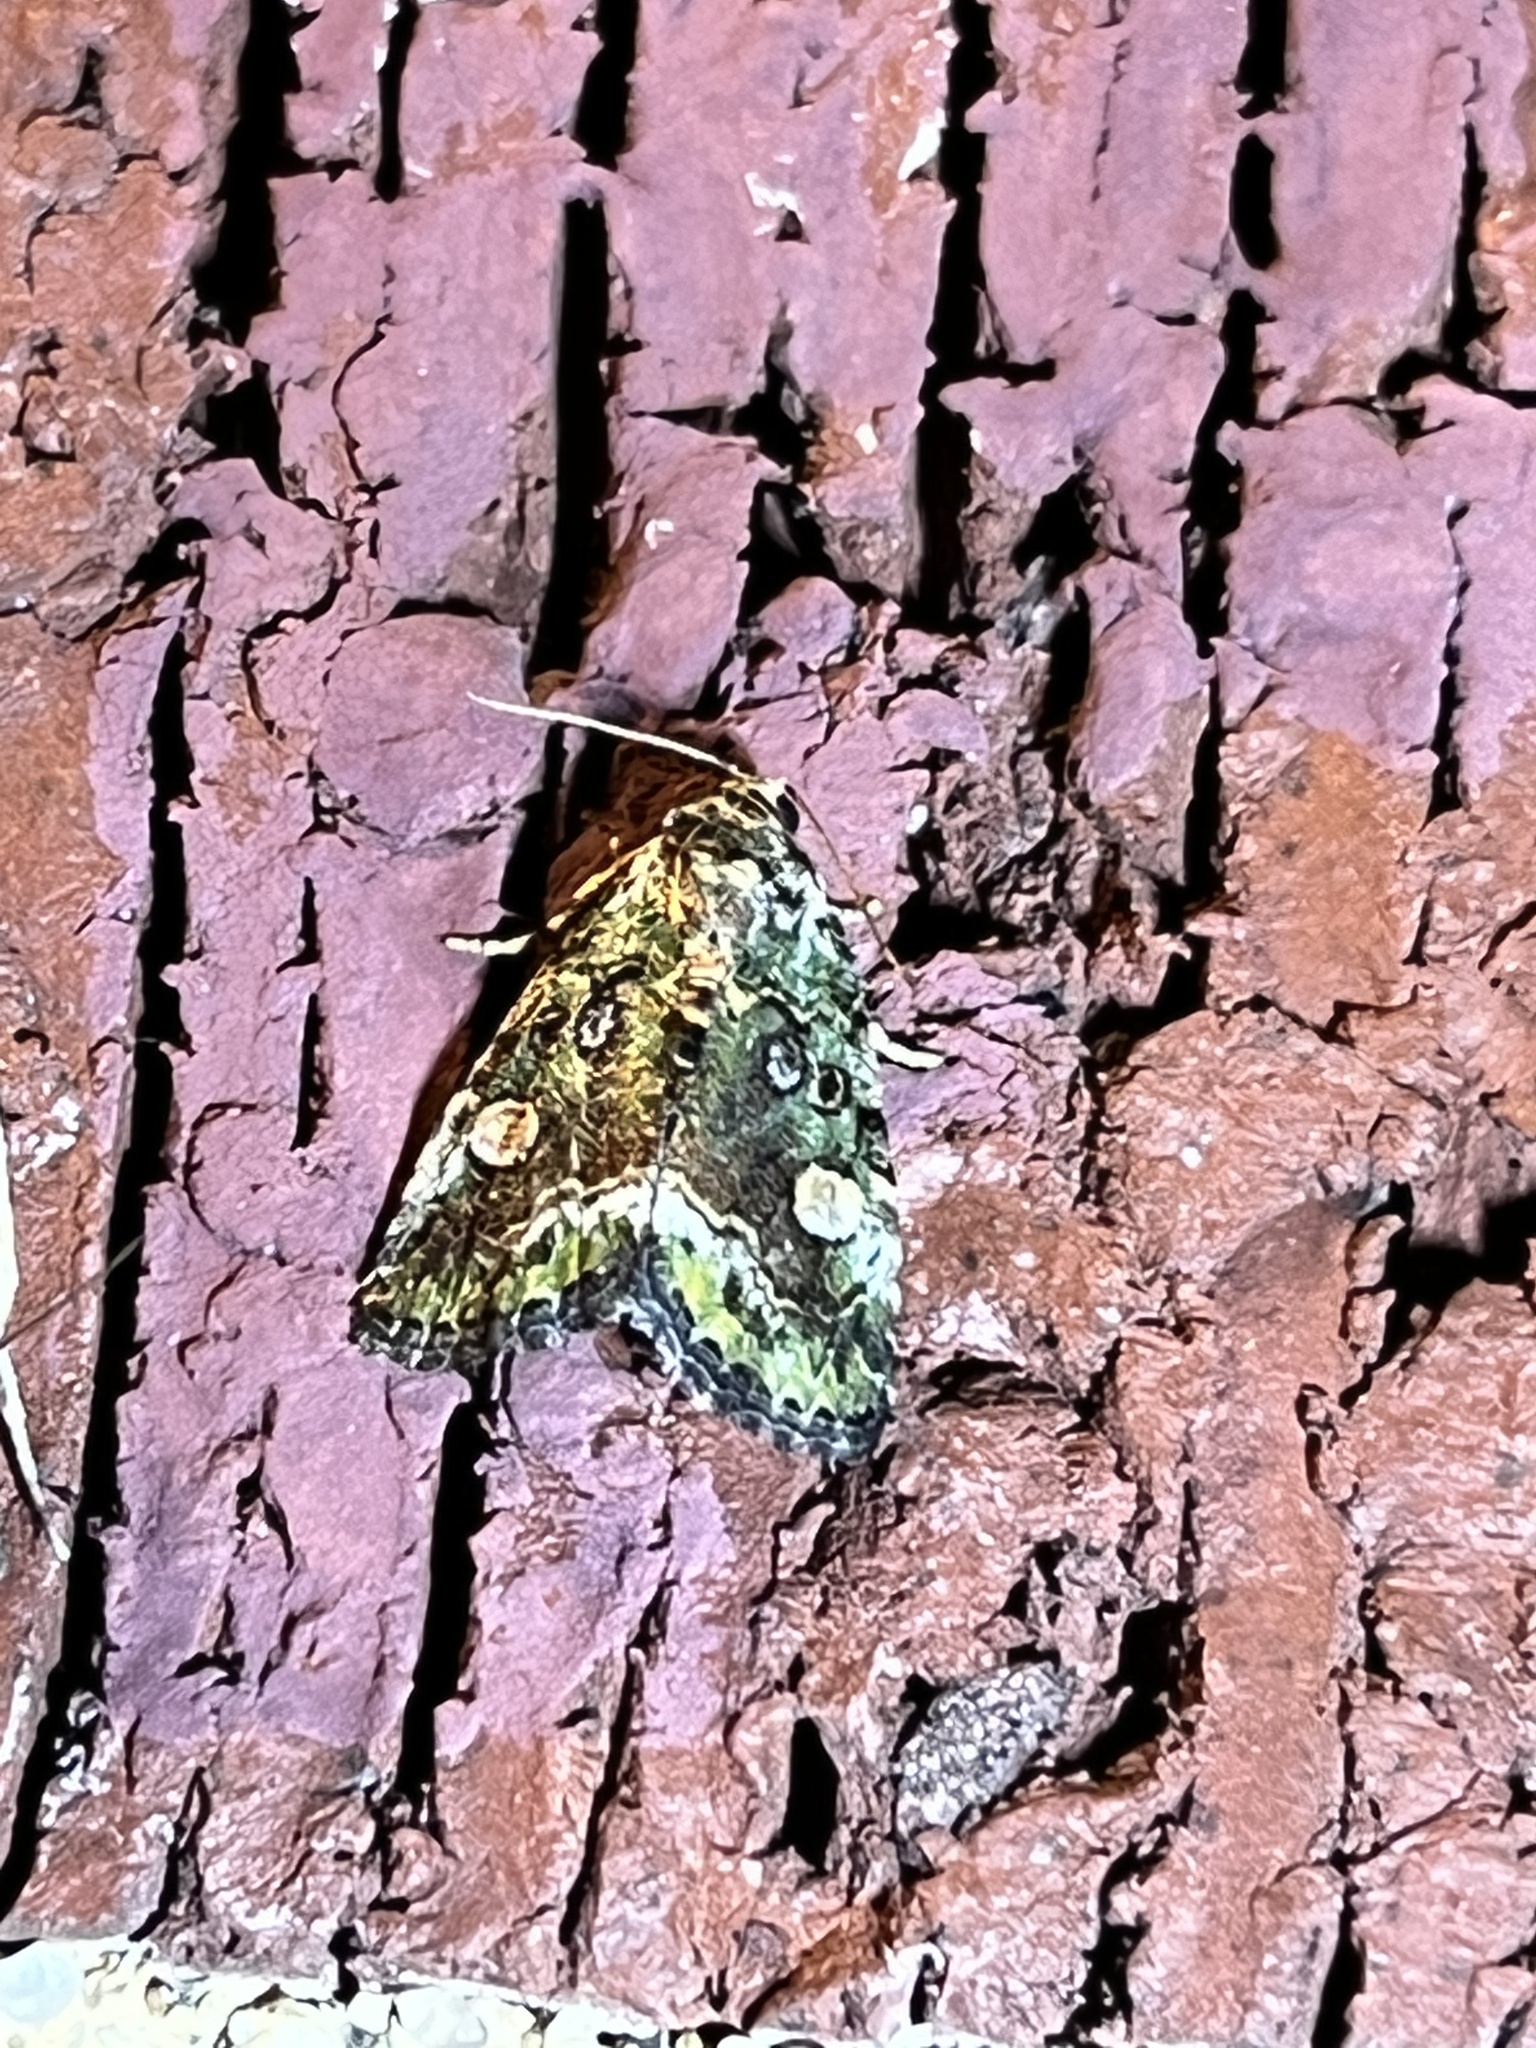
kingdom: Animalia
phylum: Arthropoda
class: Insecta
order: Lepidoptera
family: Noctuidae
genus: Lithacodia
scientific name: Lithacodia musta
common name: Small mossy glyph
